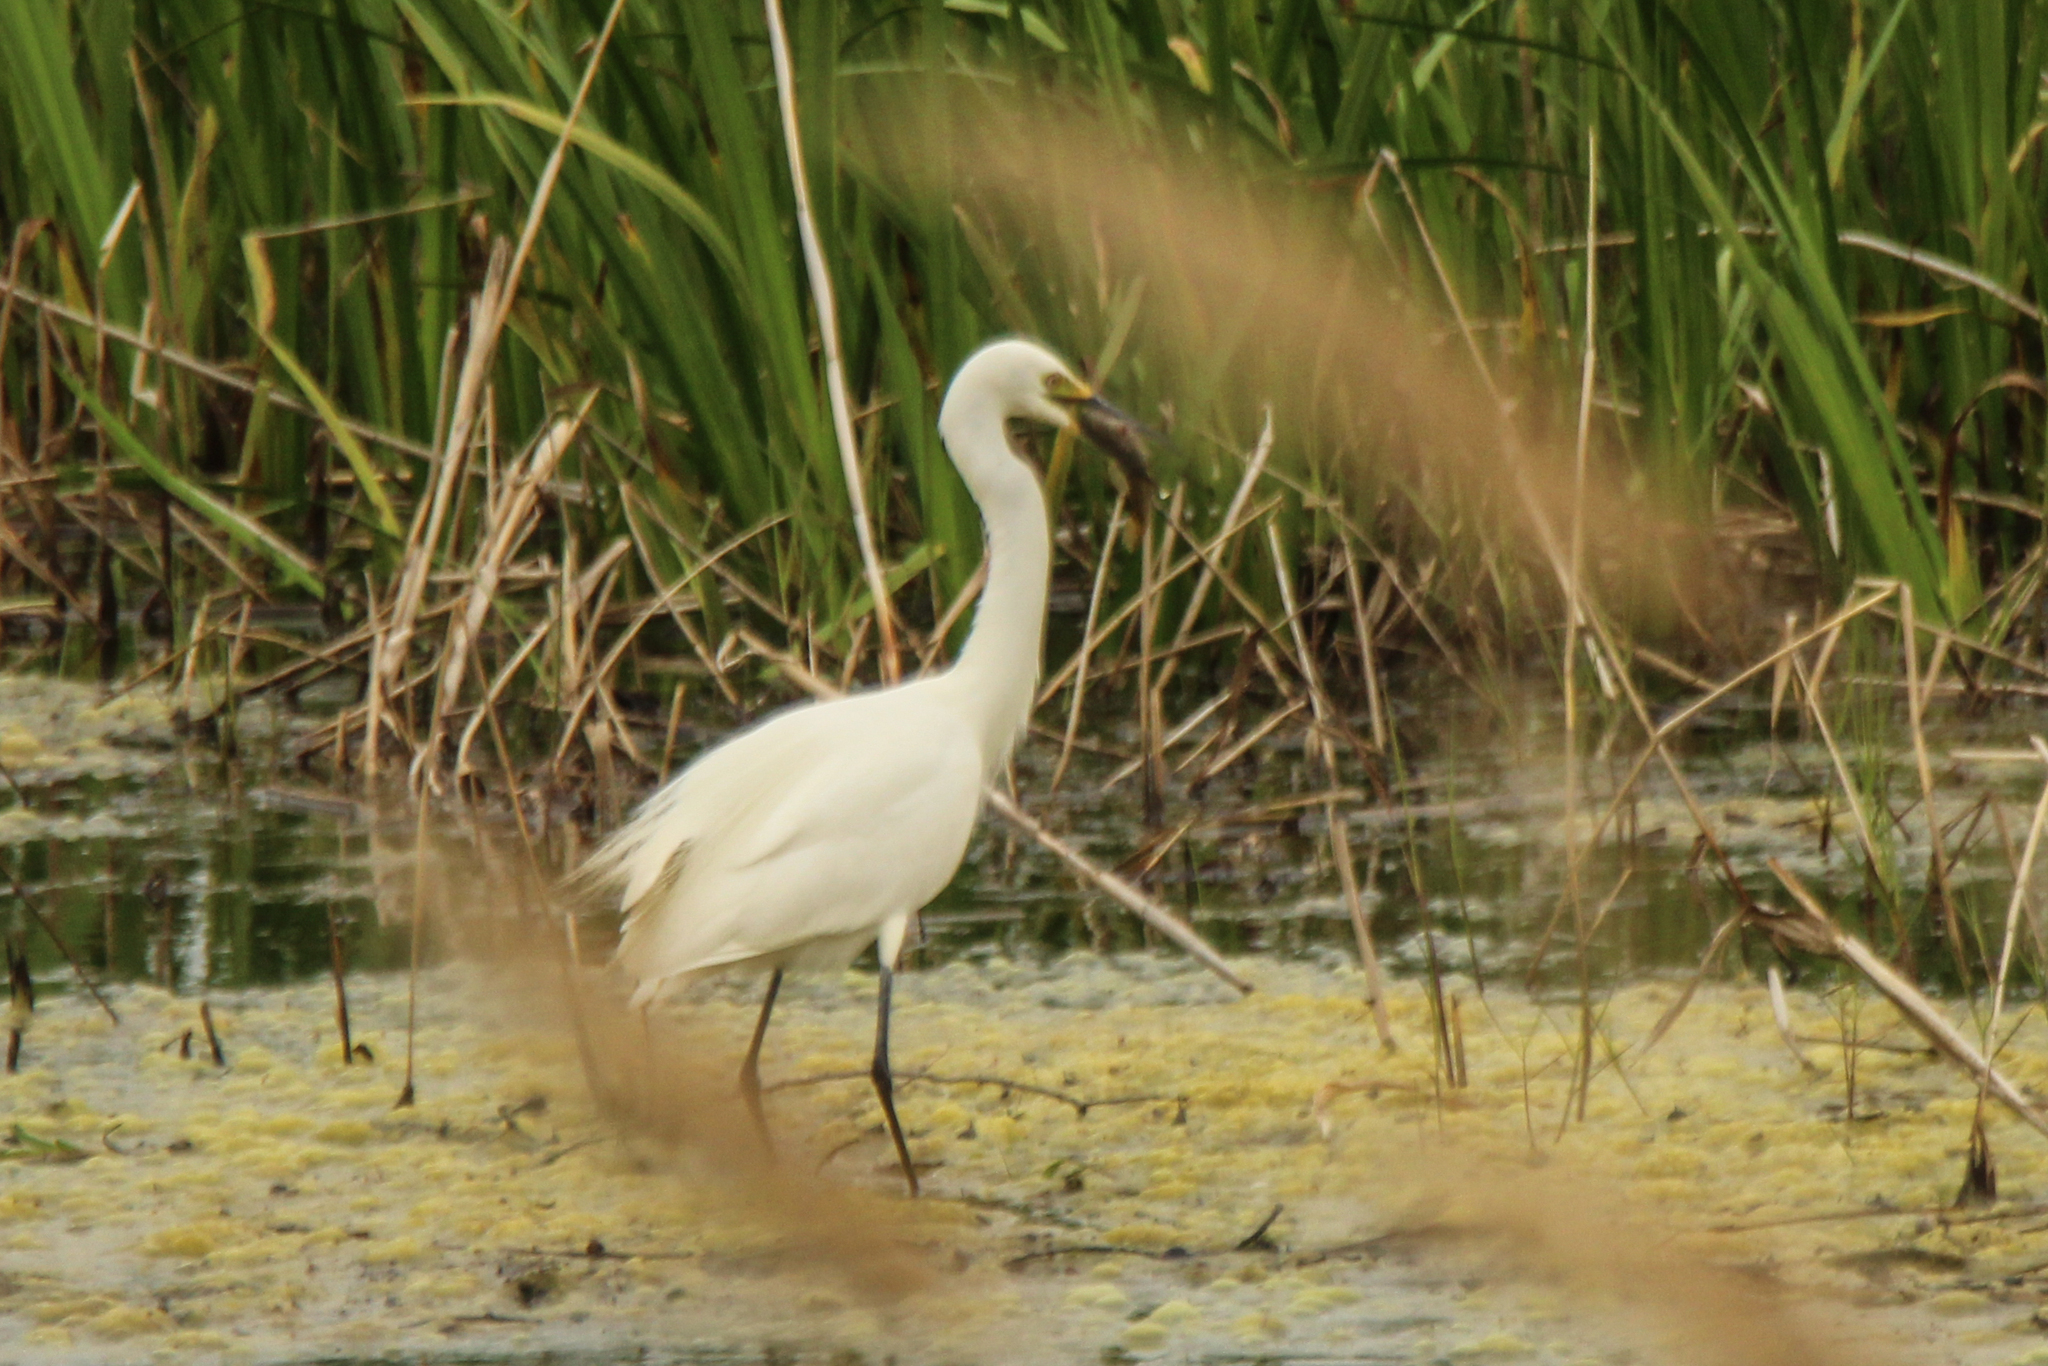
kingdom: Animalia
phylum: Chordata
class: Aves
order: Pelecaniformes
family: Ardeidae
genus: Egretta
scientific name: Egretta intermedia
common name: Intermediate egret
